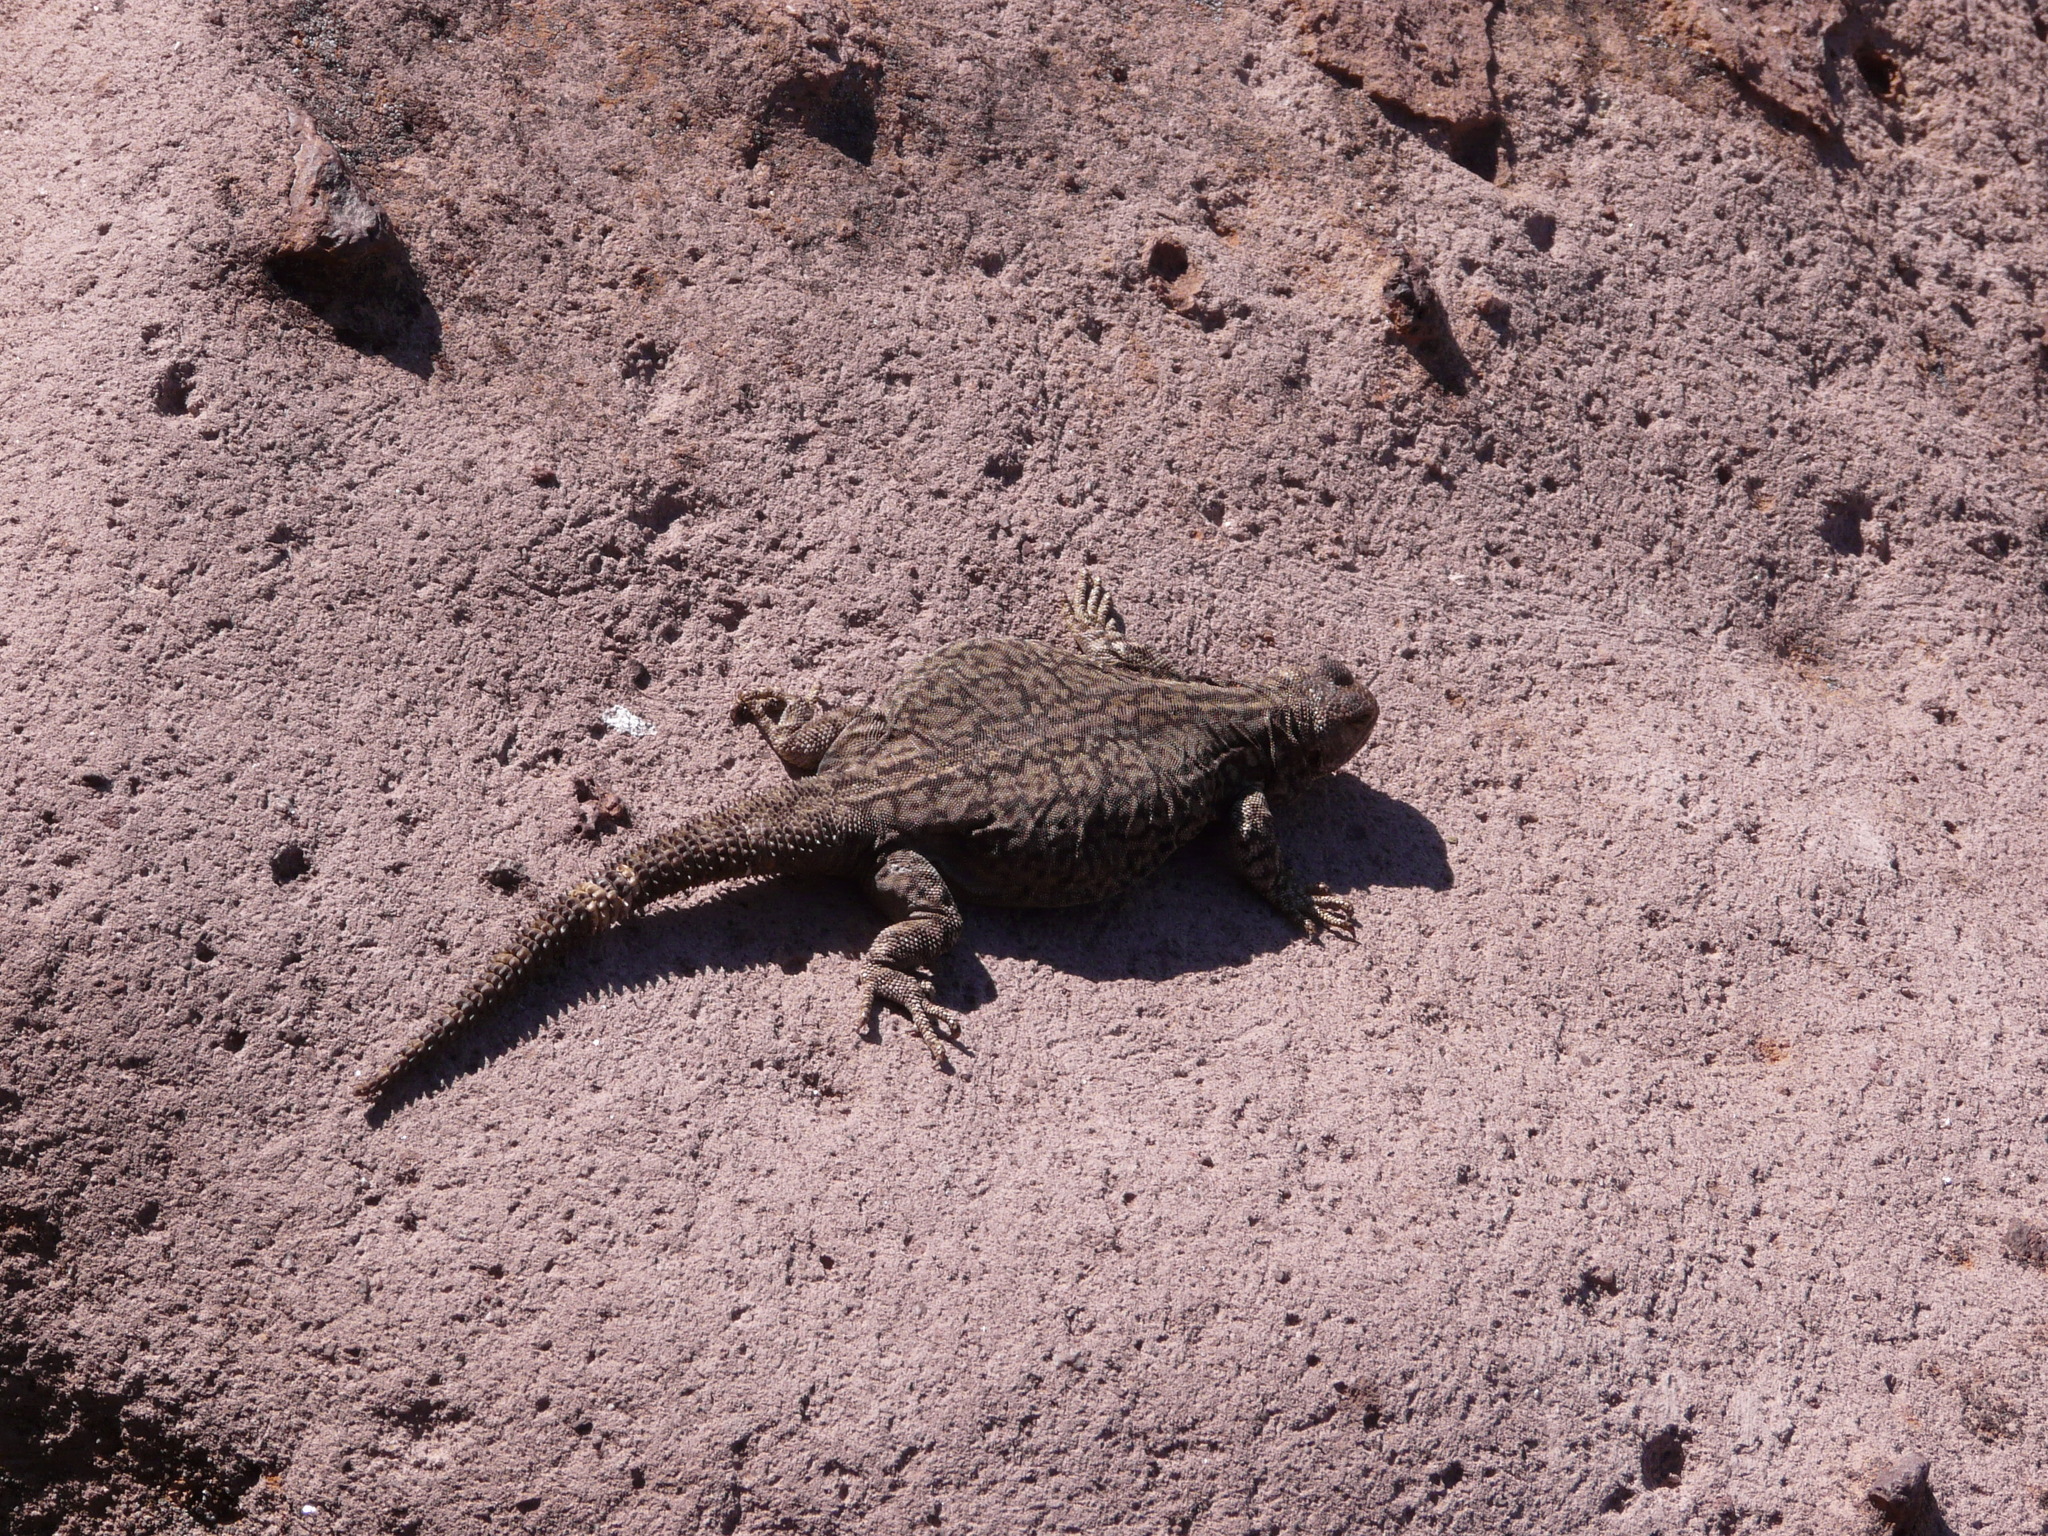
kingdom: Animalia
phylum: Chordata
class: Squamata
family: Liolaemidae
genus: Phymaturus
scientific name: Phymaturus roigorum
